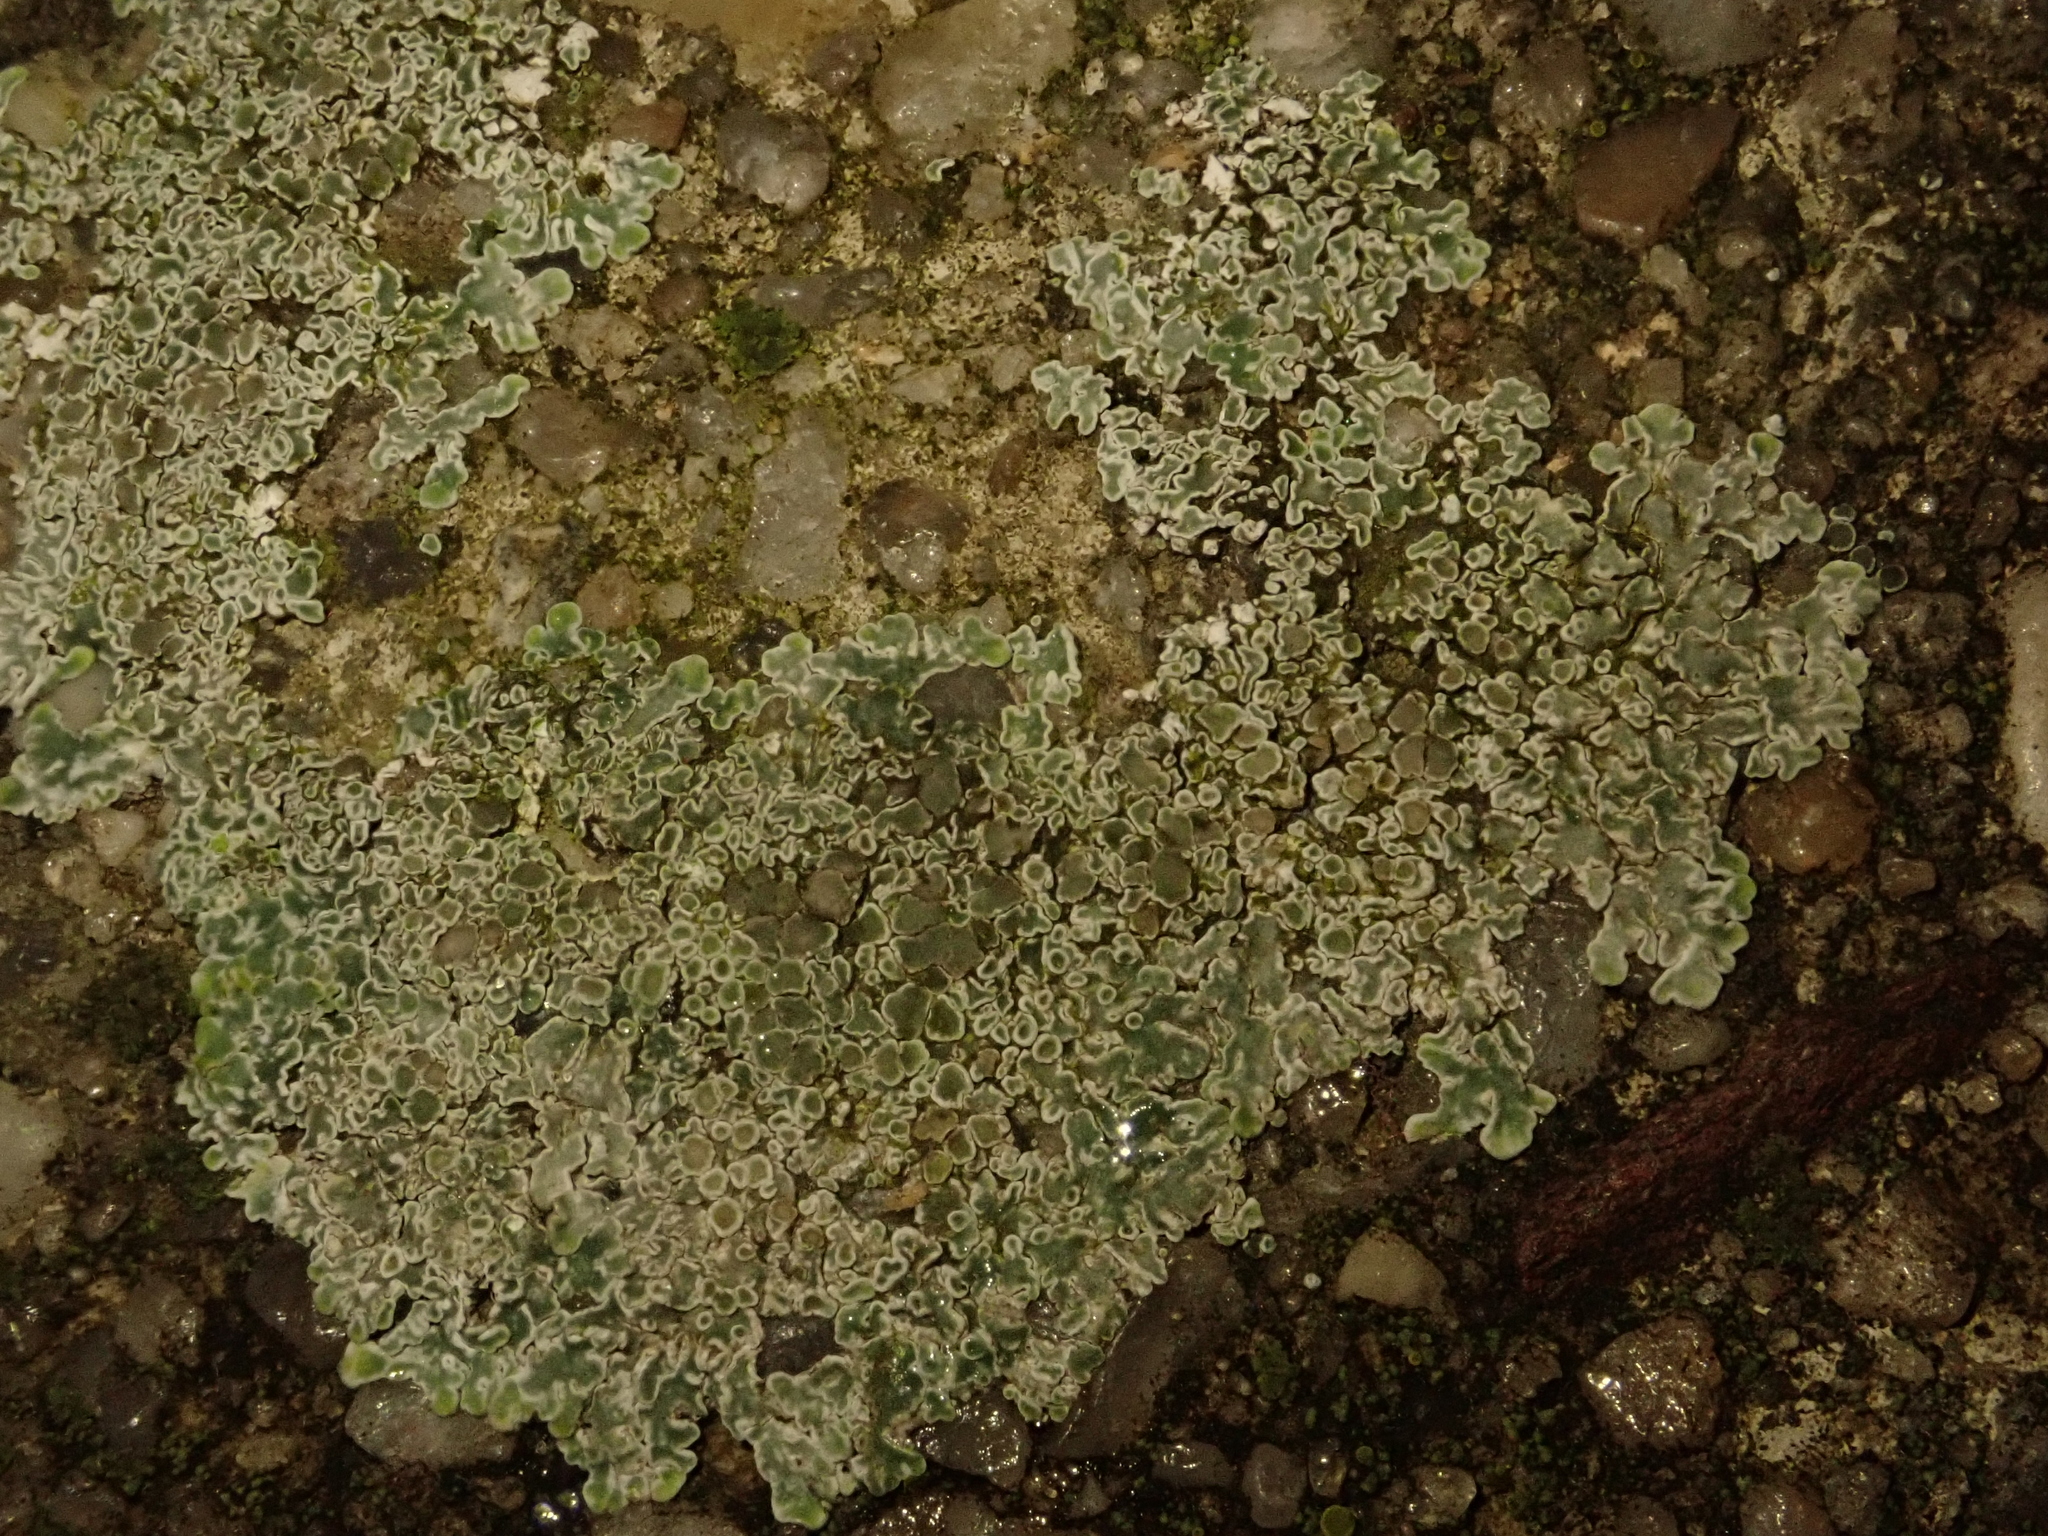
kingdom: Fungi
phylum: Ascomycota
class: Lecanoromycetes
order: Lecanorales
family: Lecanoraceae
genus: Protoparmeliopsis
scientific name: Protoparmeliopsis muralis
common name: Stonewall rim lichen
